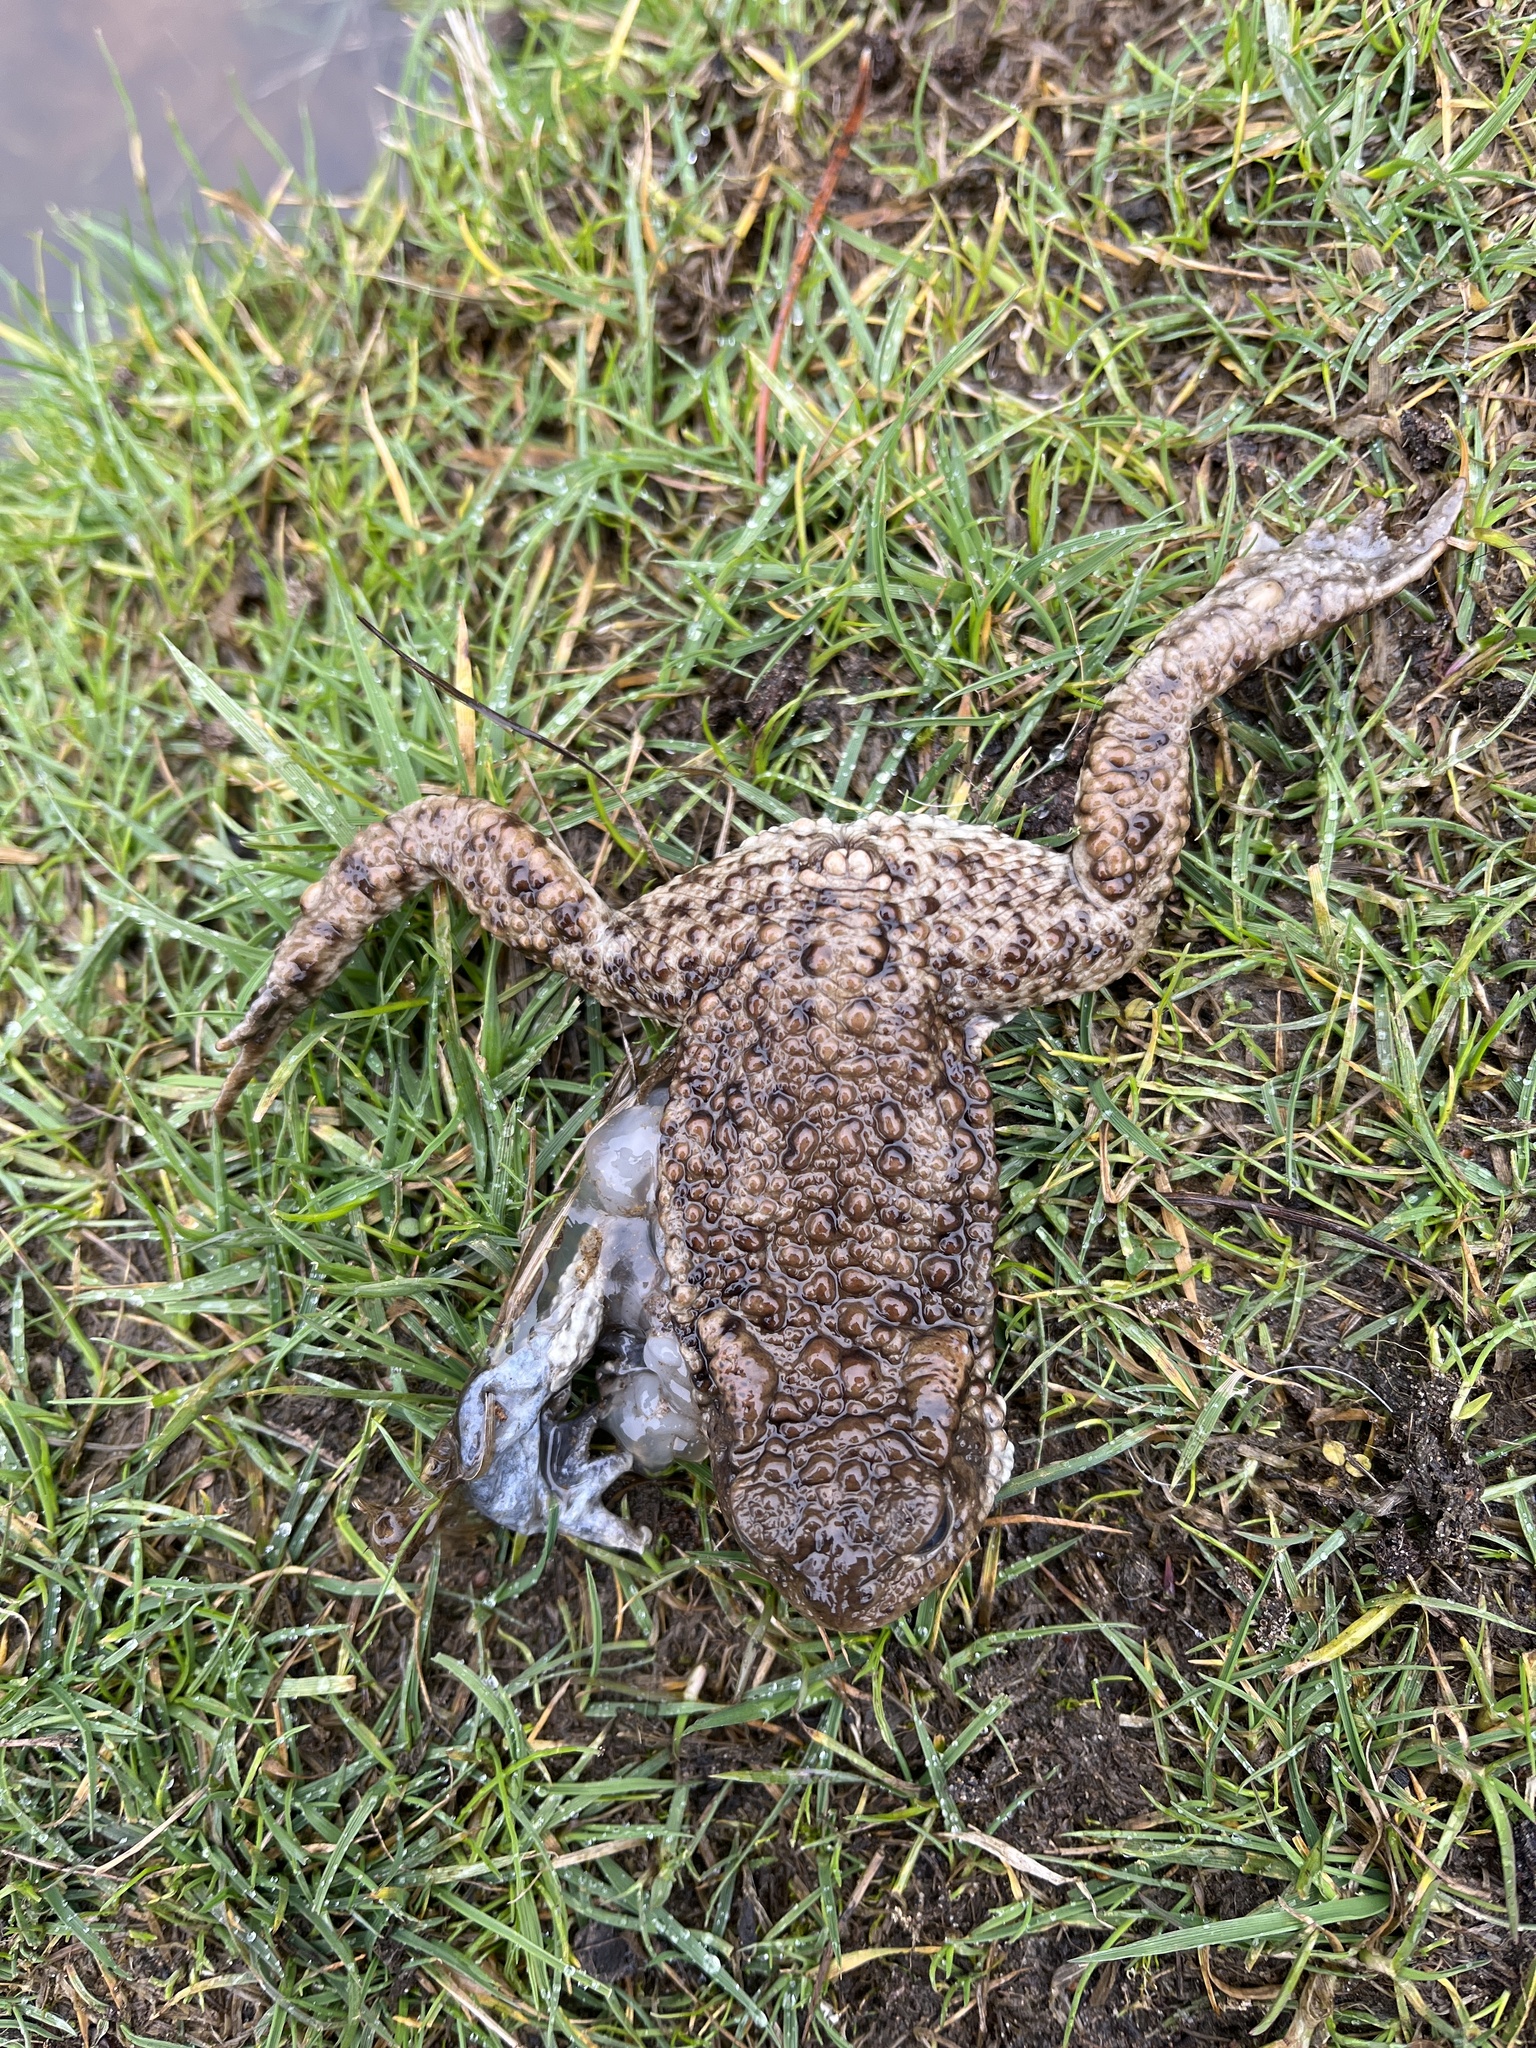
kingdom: Animalia
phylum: Chordata
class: Amphibia
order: Anura
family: Bufonidae
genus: Bufo
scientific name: Bufo bufo
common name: Common toad
